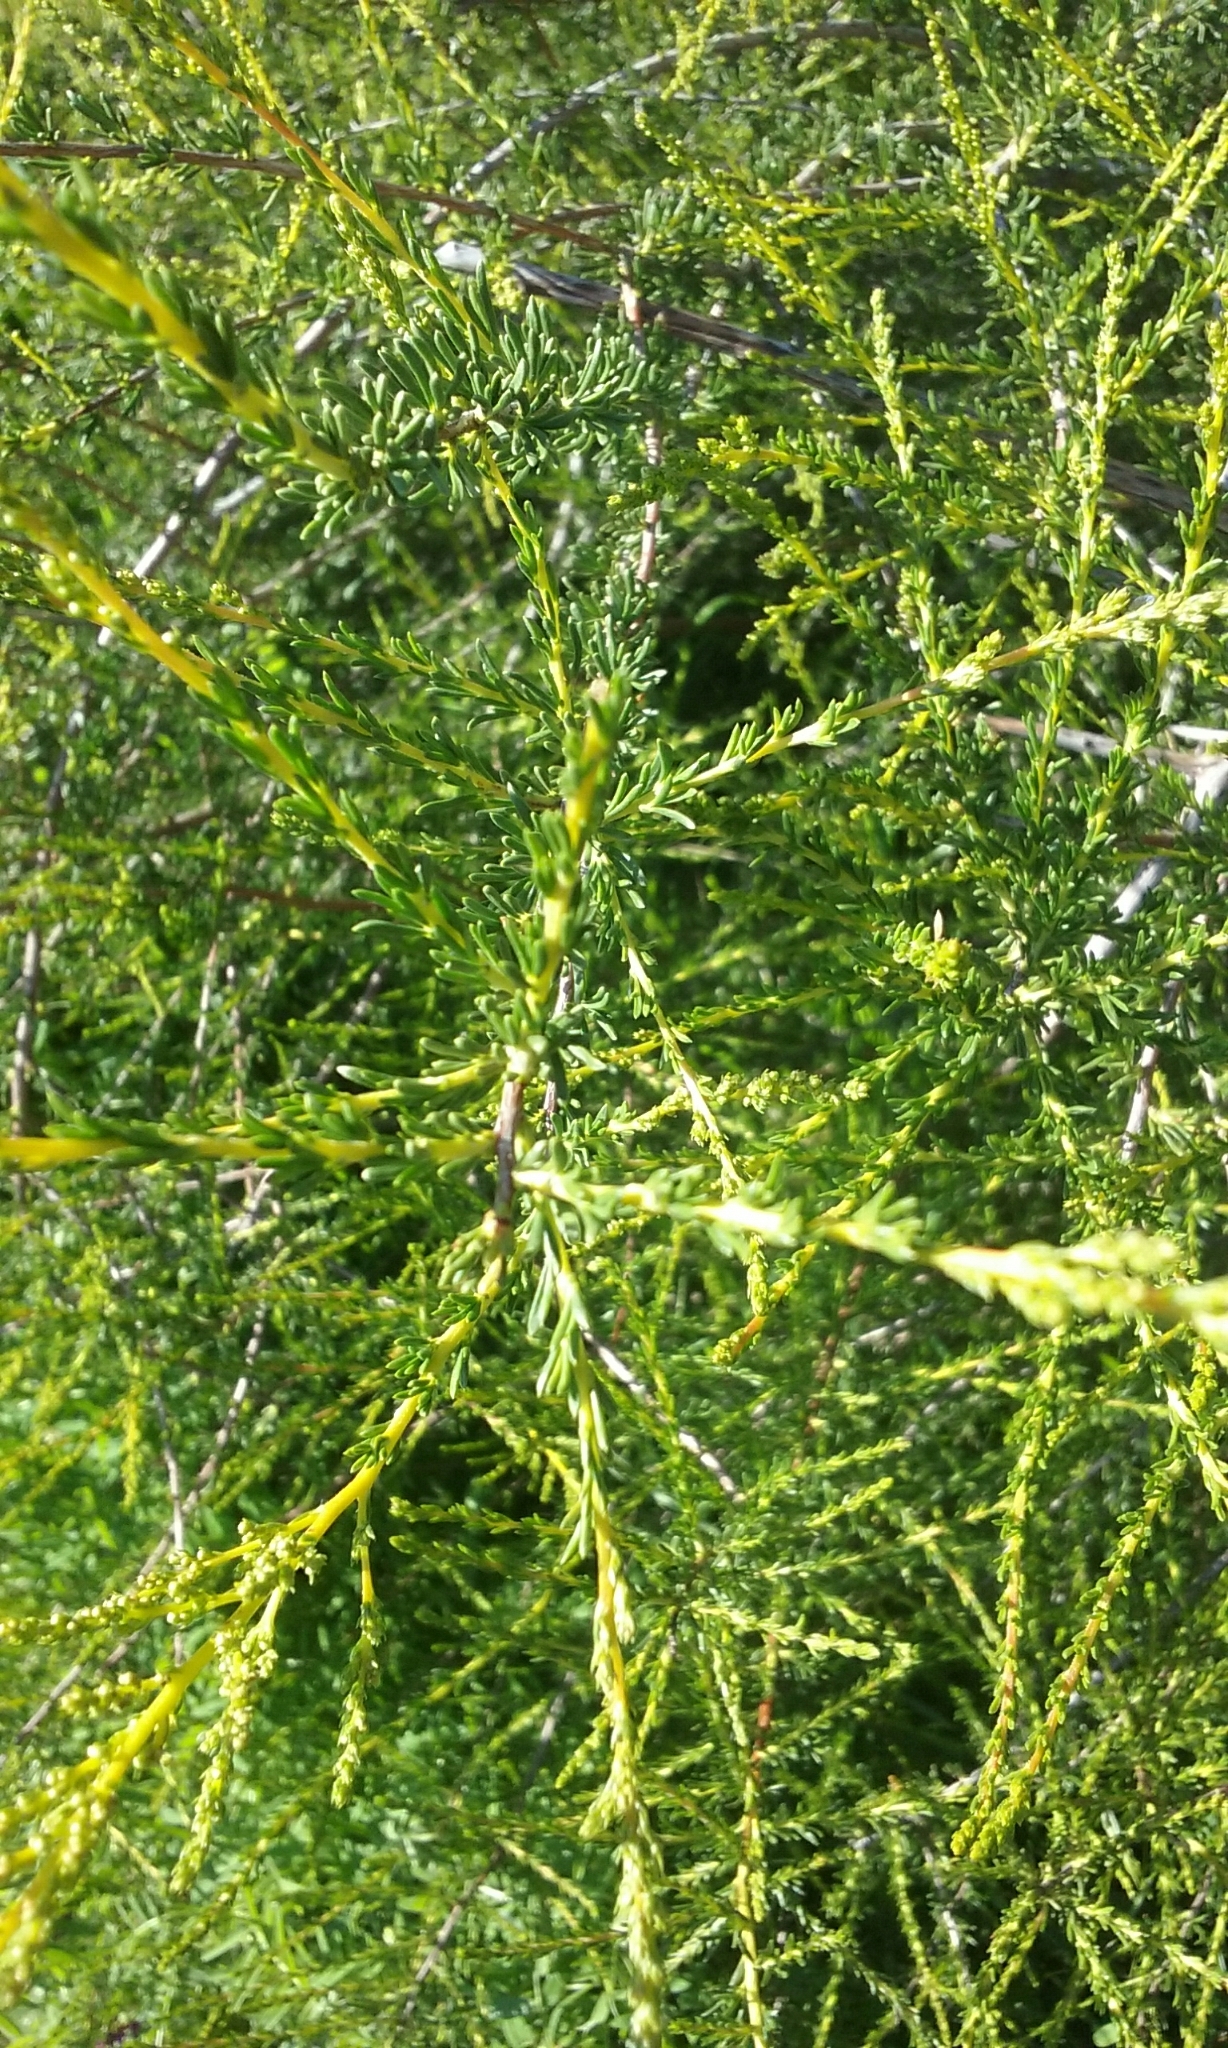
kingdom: Plantae
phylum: Tracheophyta
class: Magnoliopsida
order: Rosales
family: Rosaceae
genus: Adenostoma
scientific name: Adenostoma fasciculatum
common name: Chamise
